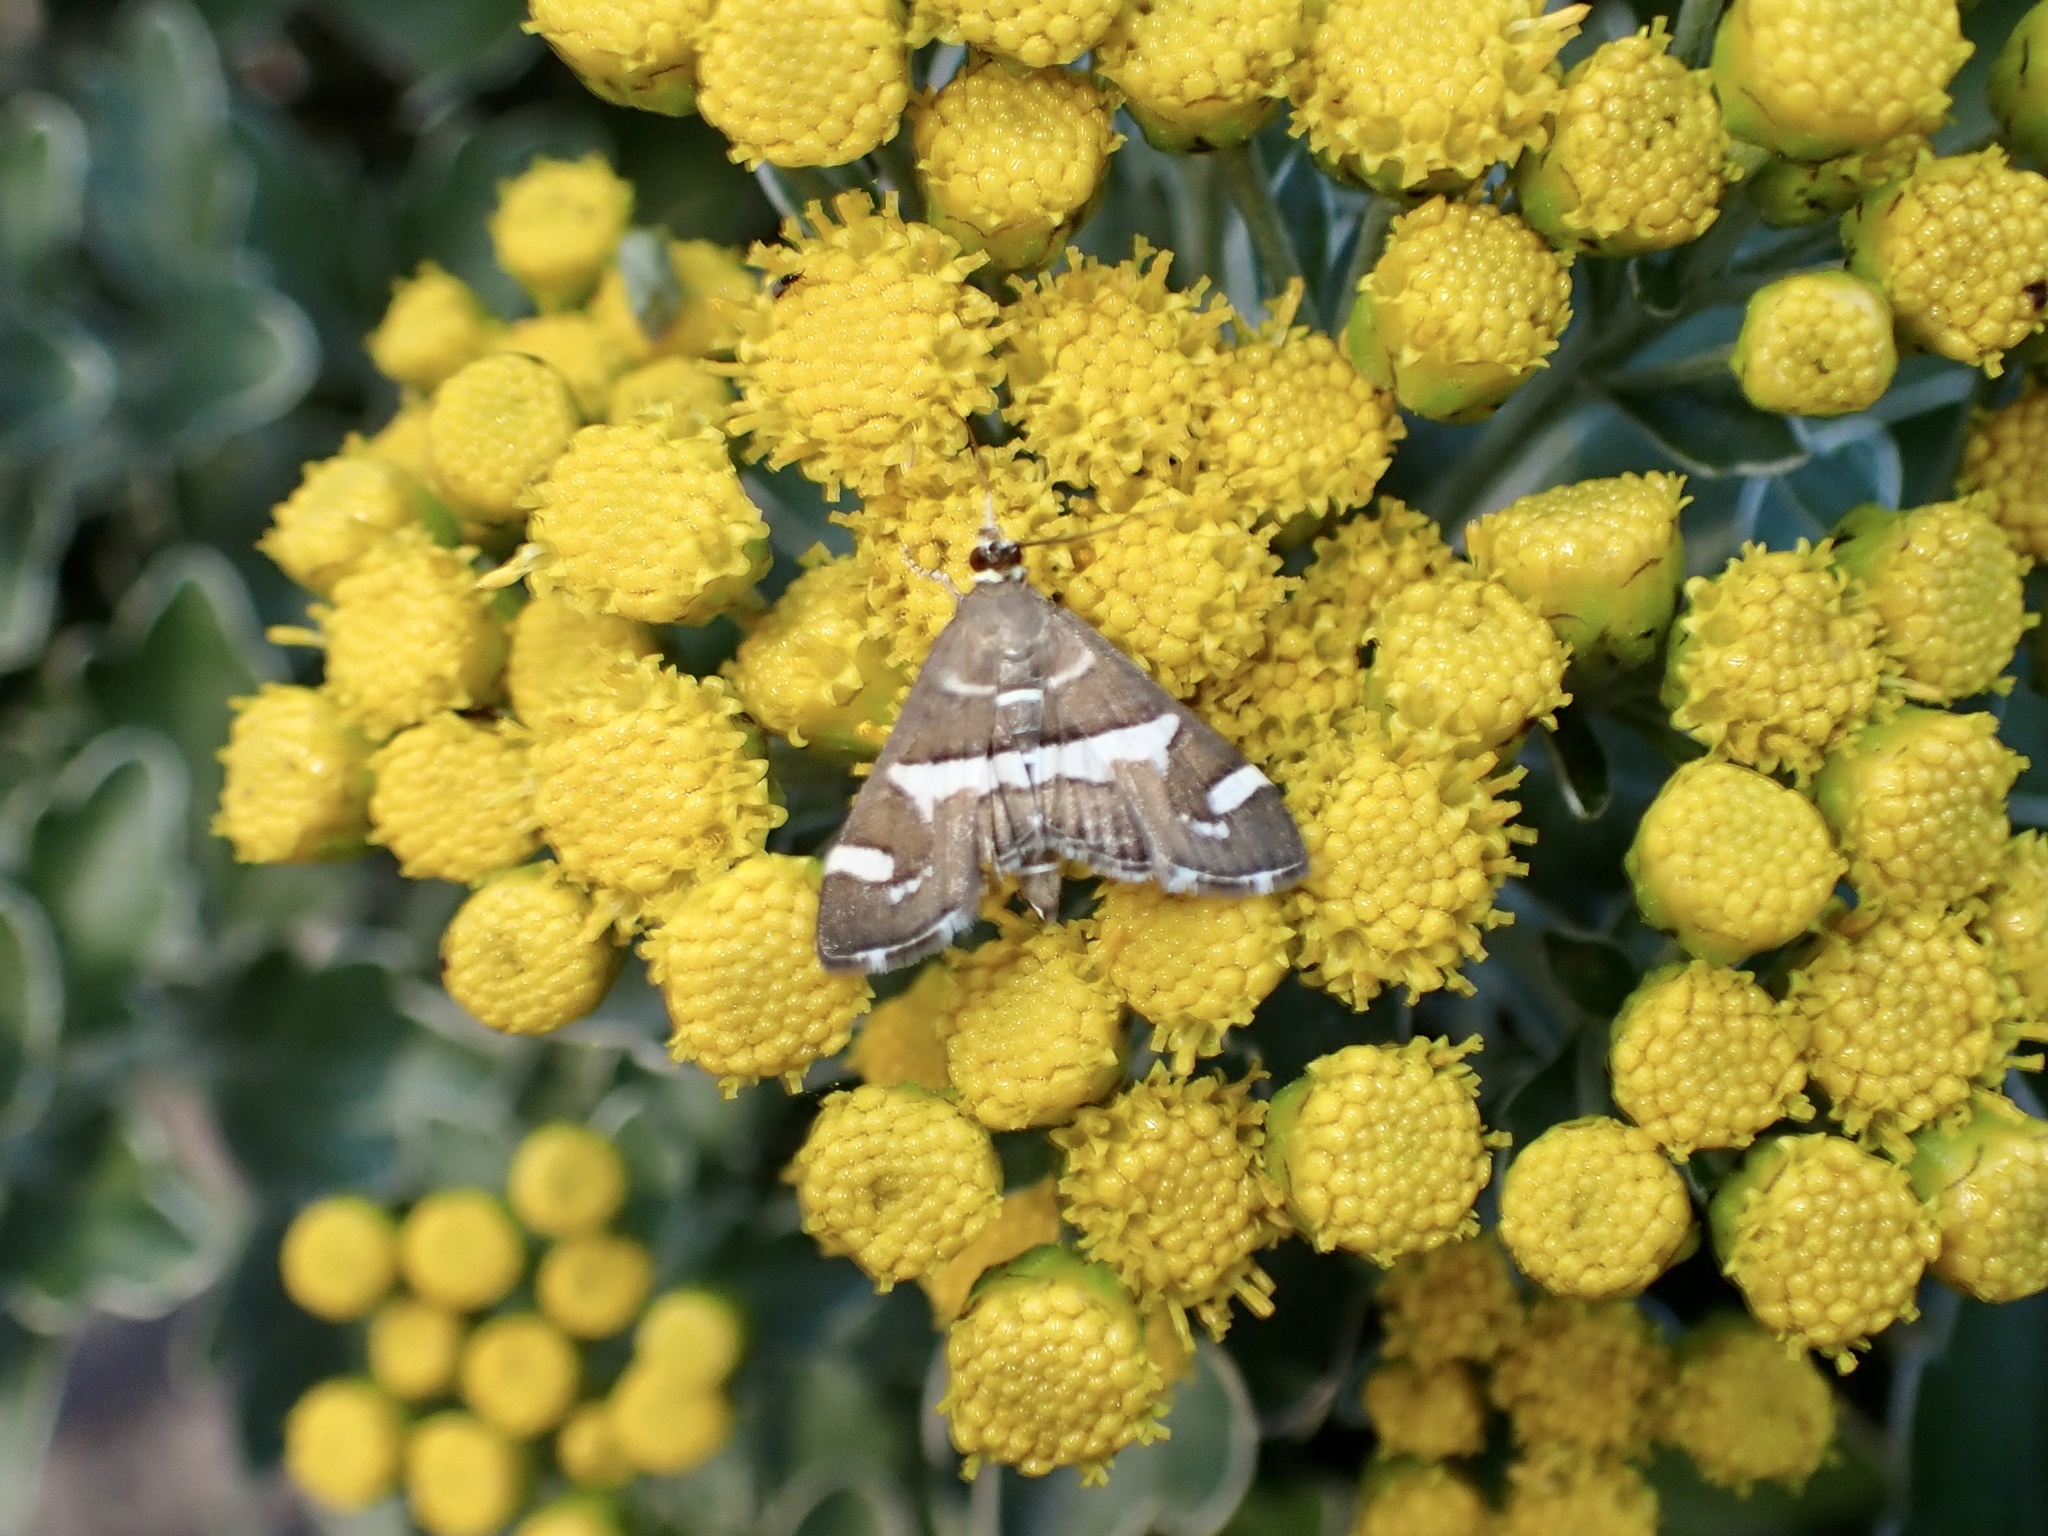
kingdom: Animalia
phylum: Arthropoda
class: Insecta
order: Lepidoptera
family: Crambidae
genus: Spoladea
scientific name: Spoladea recurvalis
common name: Beet webworm moth
